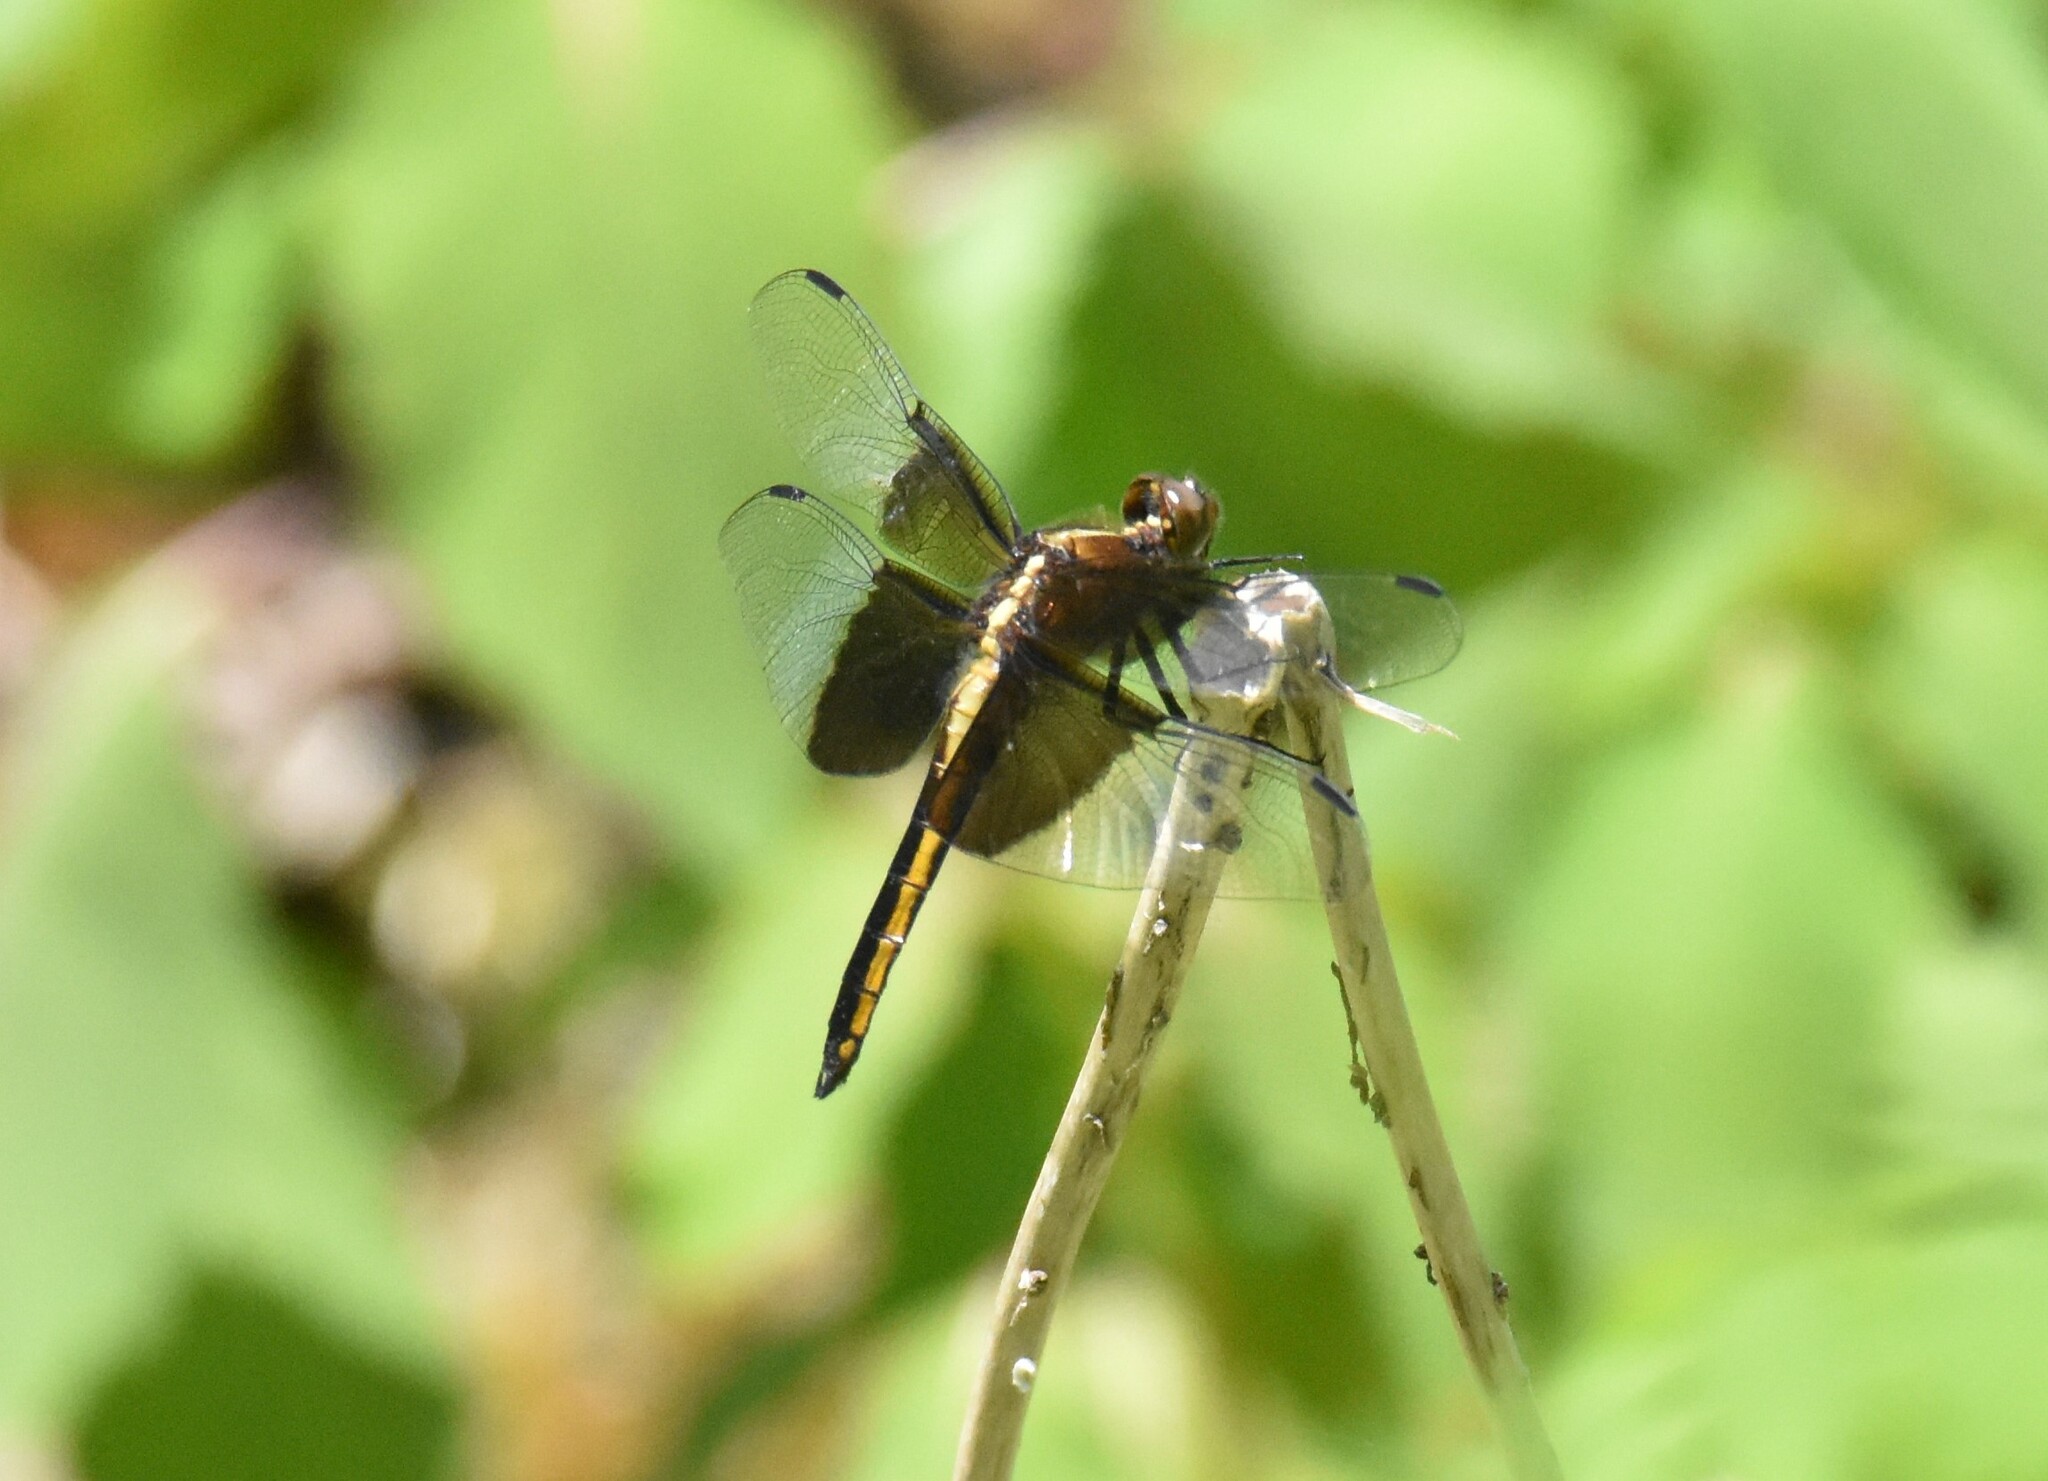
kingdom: Animalia
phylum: Arthropoda
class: Insecta
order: Odonata
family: Libellulidae
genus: Libellula
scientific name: Libellula luctuosa
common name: Widow skimmer
